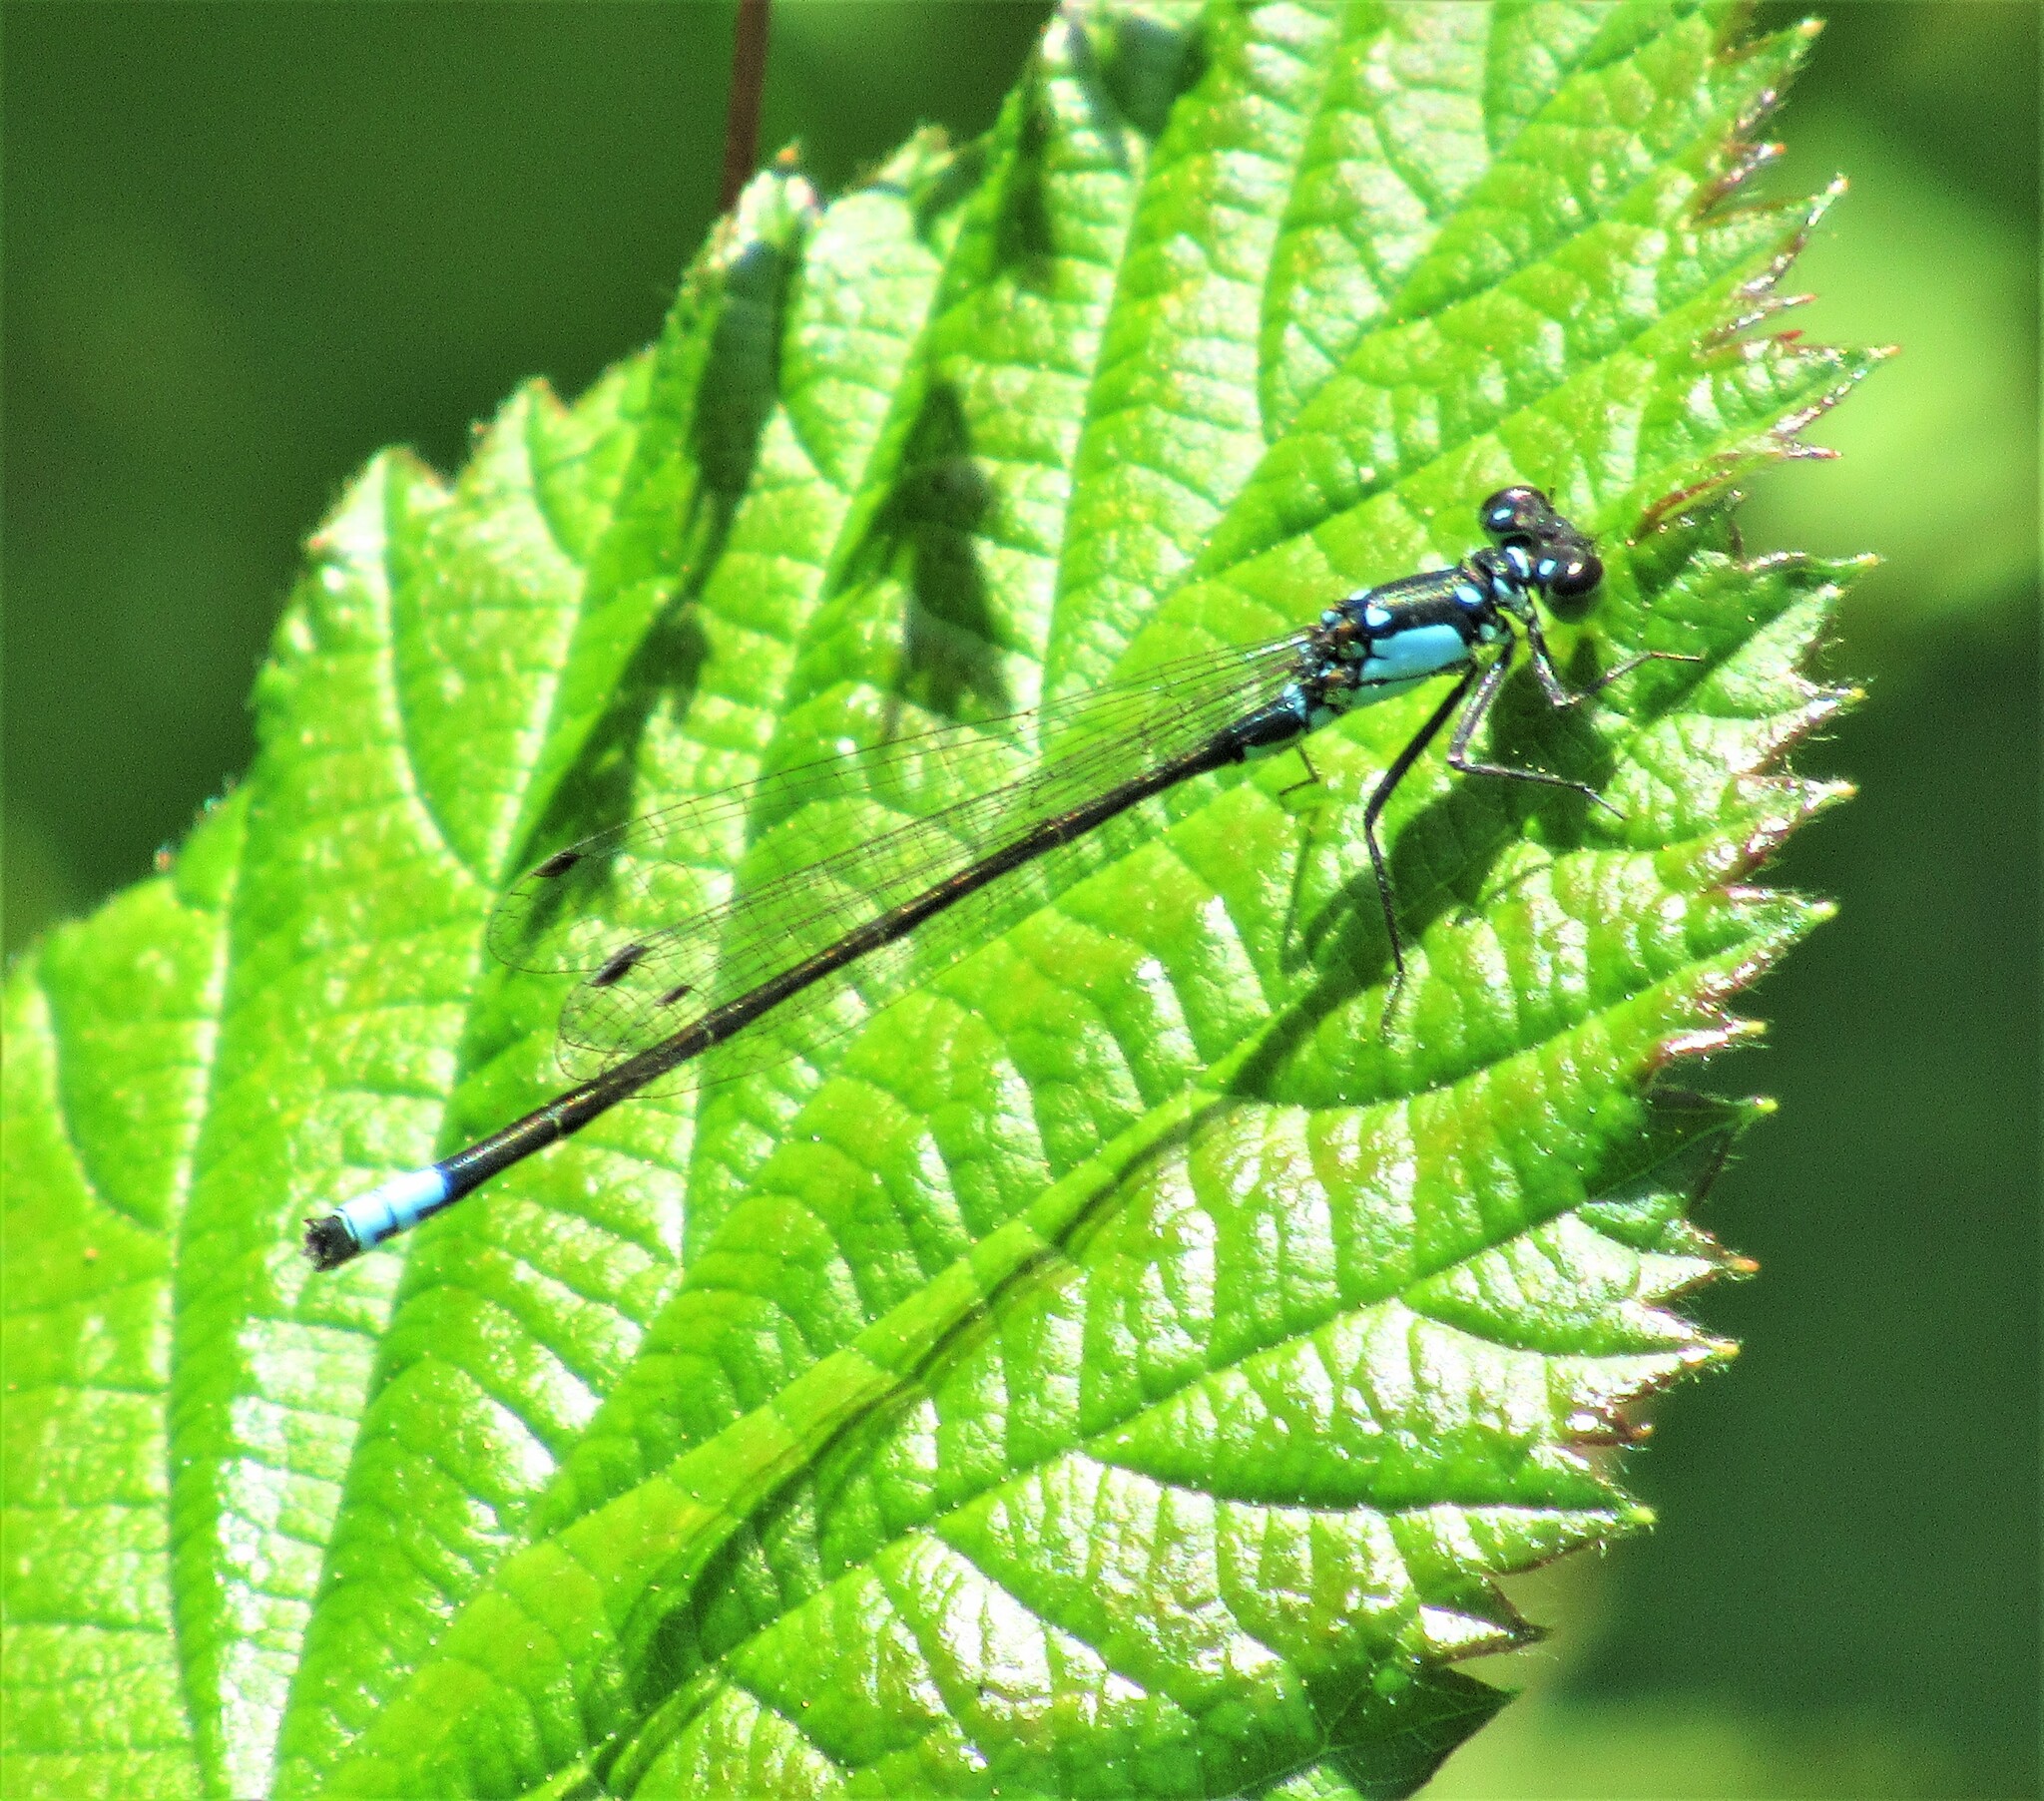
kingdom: Animalia
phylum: Arthropoda
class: Insecta
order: Odonata
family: Coenagrionidae
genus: Ischnura
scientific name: Ischnura cervula
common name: Pacific forktail
